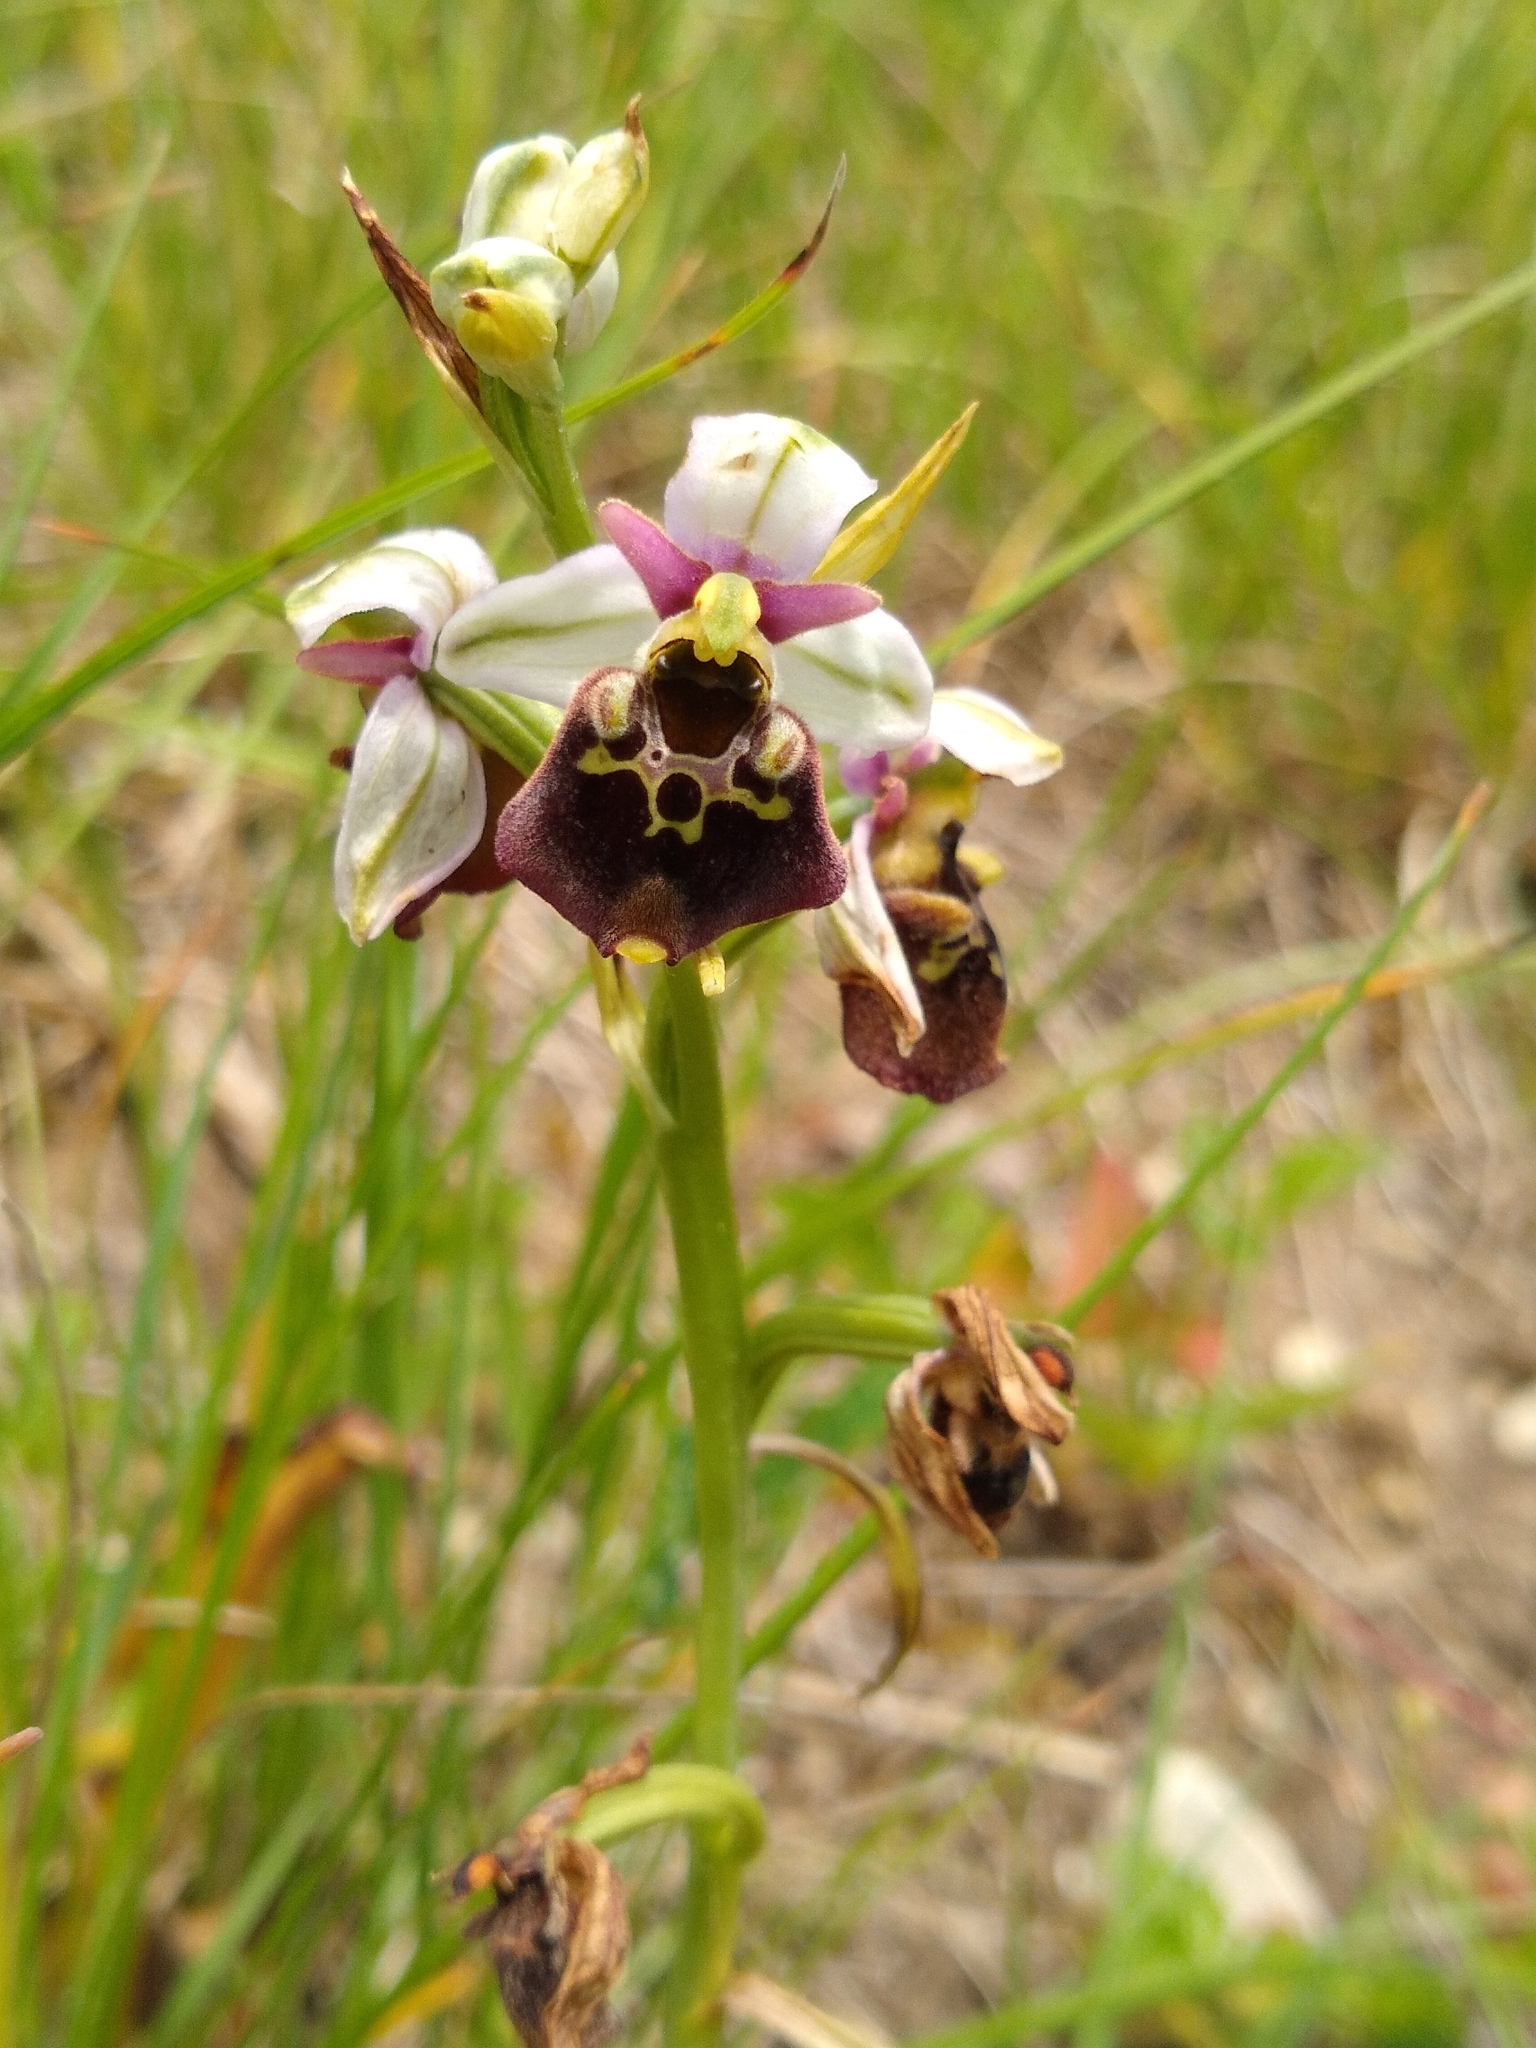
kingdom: Plantae
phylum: Tracheophyta
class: Liliopsida
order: Asparagales
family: Orchidaceae
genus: Ophrys
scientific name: Ophrys holosericea
